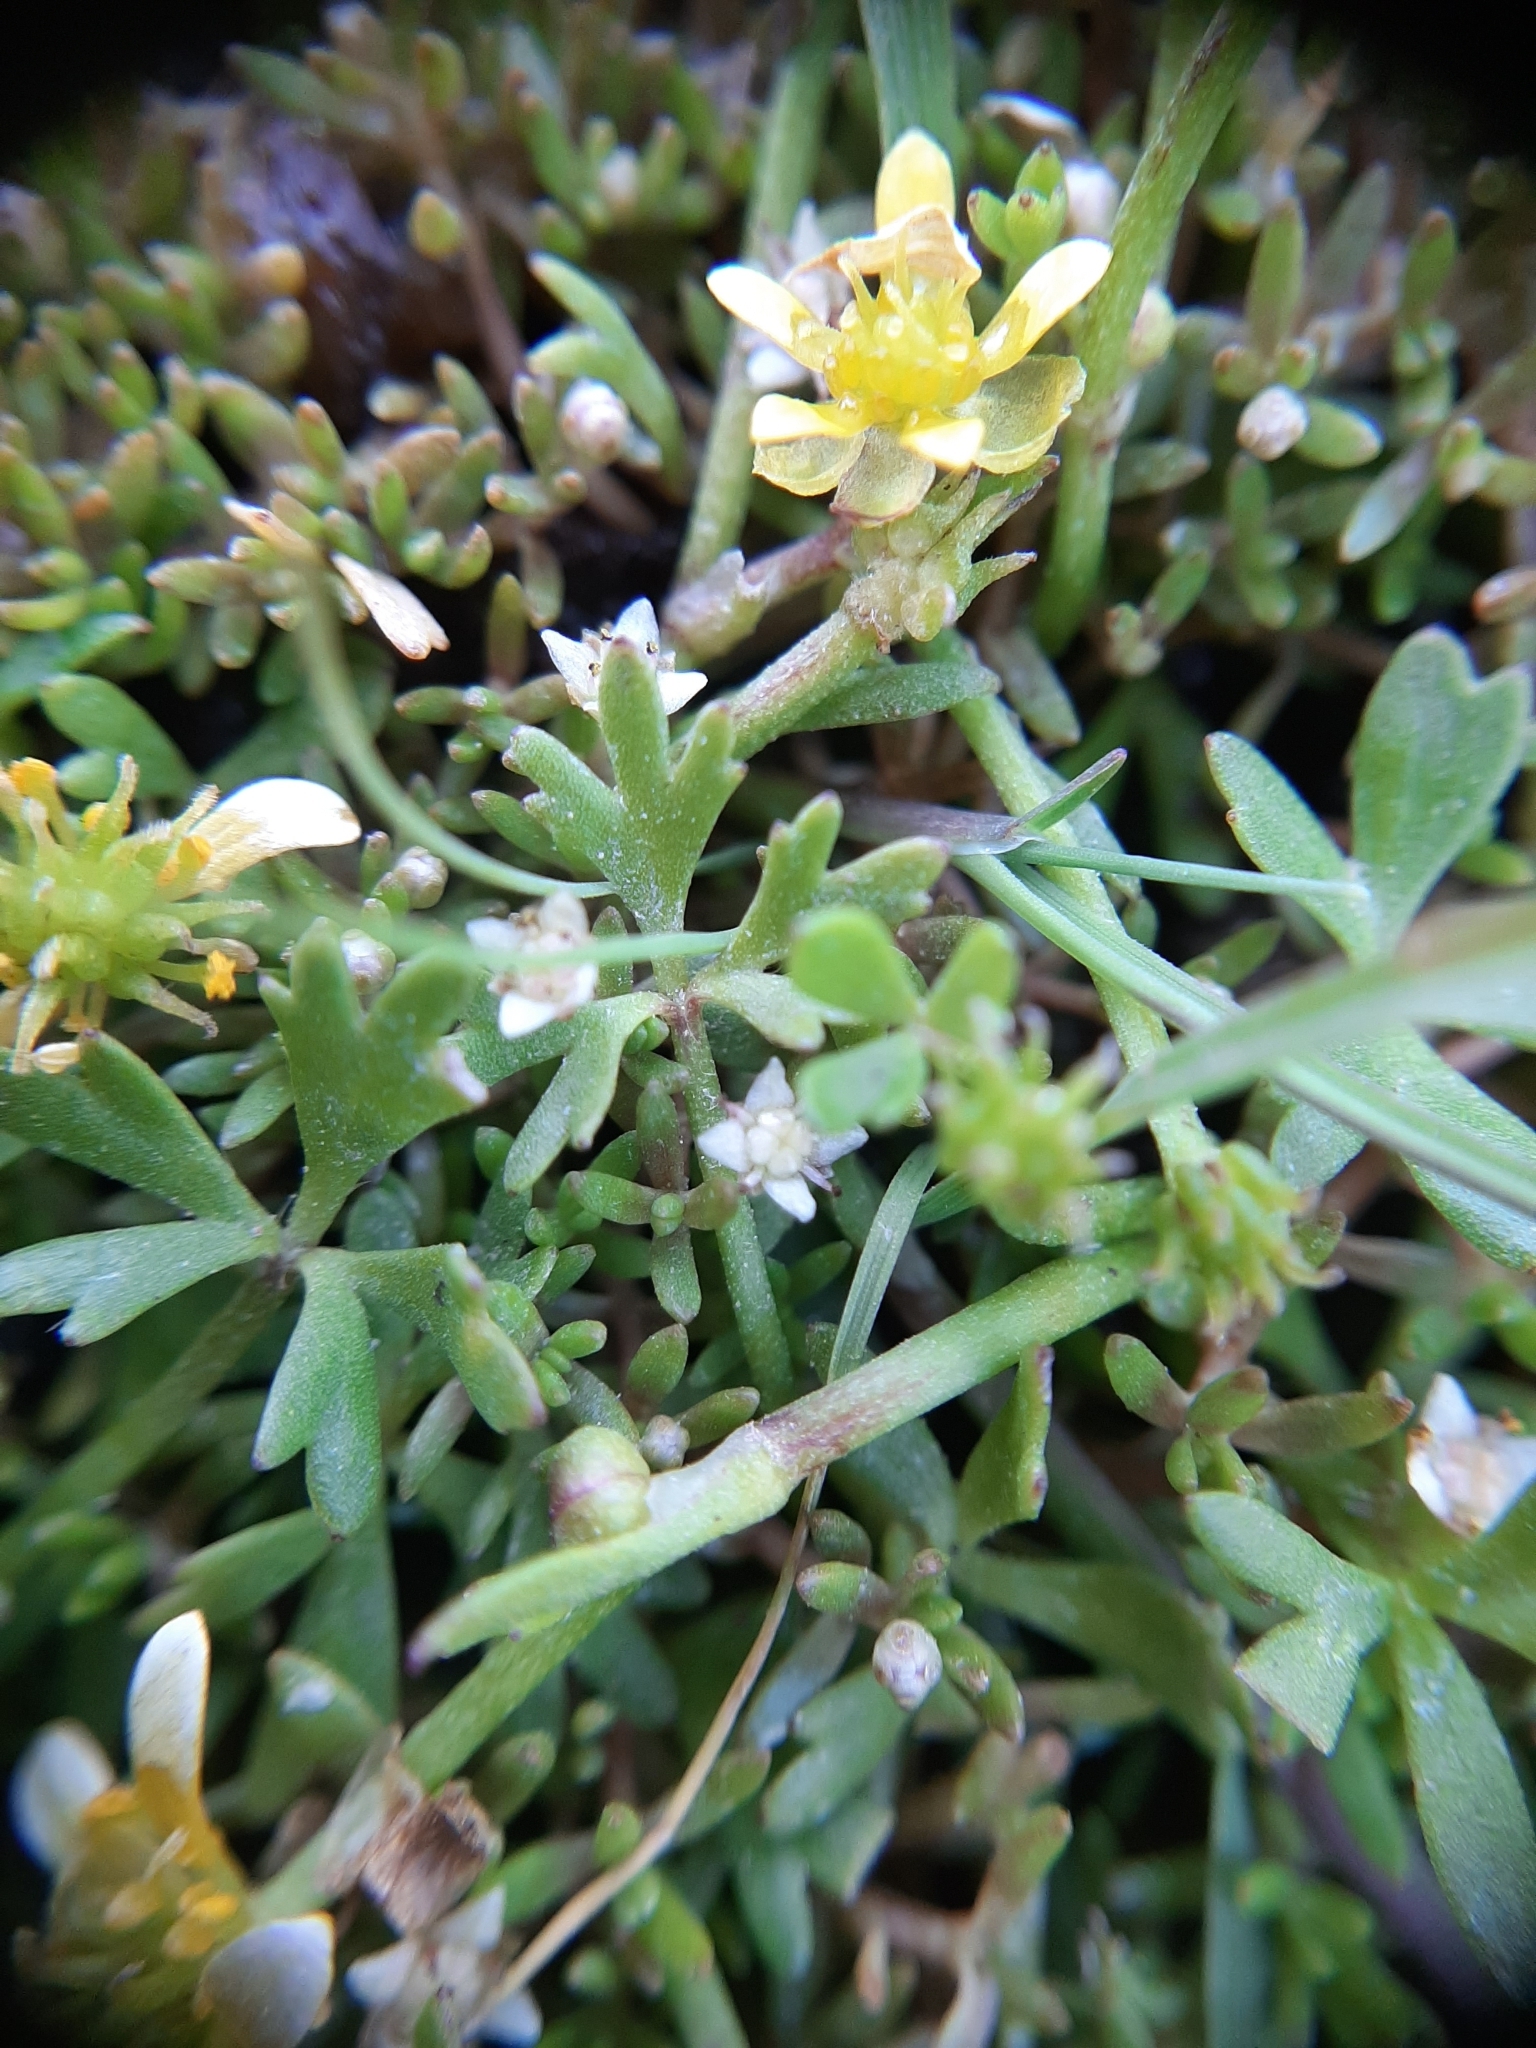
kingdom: Plantae
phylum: Tracheophyta
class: Magnoliopsida
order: Ranunculales
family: Ranunculaceae
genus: Ranunculus
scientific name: Ranunculus glabrifolius
